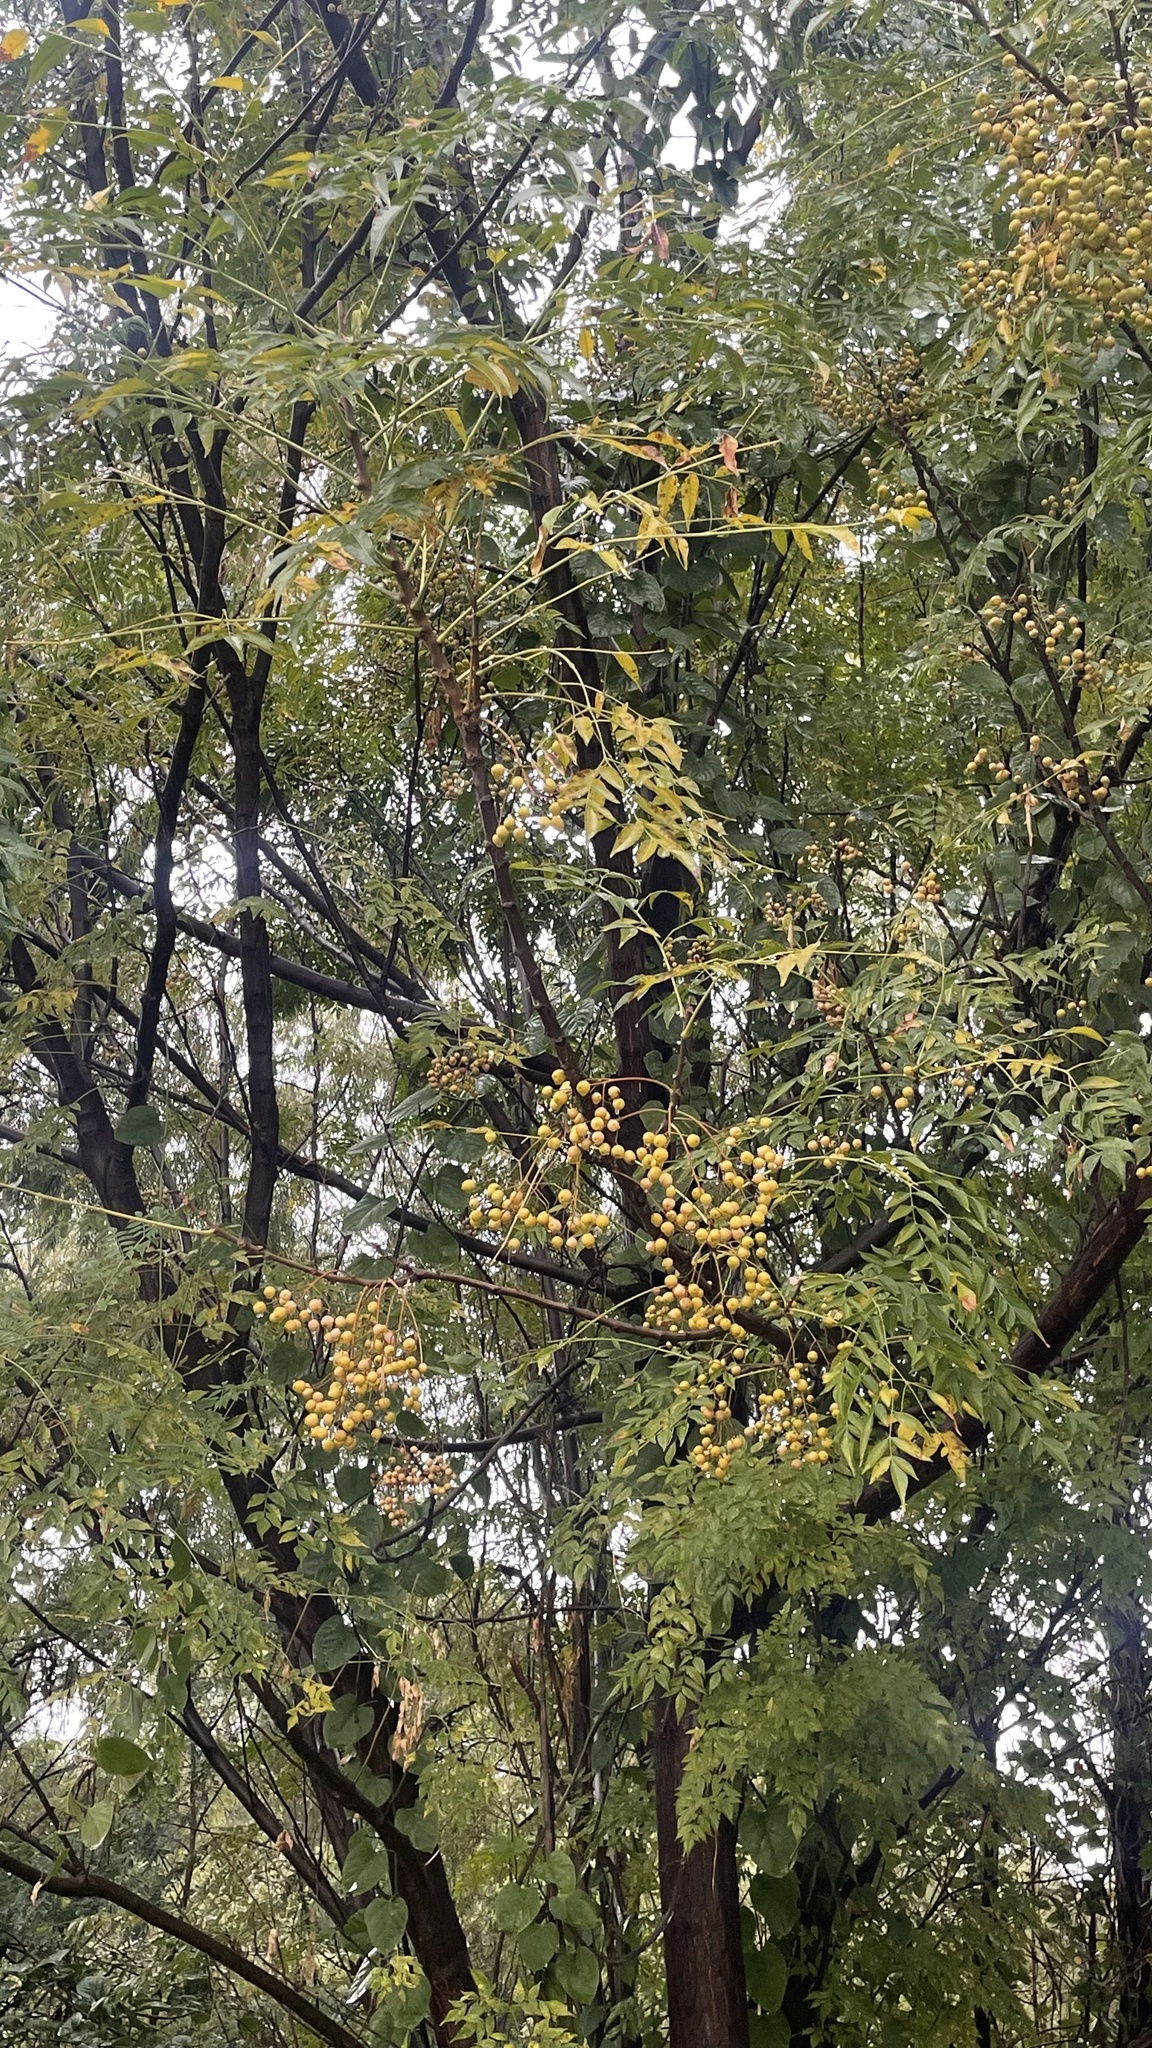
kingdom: Plantae
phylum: Tracheophyta
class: Magnoliopsida
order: Sapindales
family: Meliaceae
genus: Melia
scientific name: Melia azedarach
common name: Chinaberrytree
